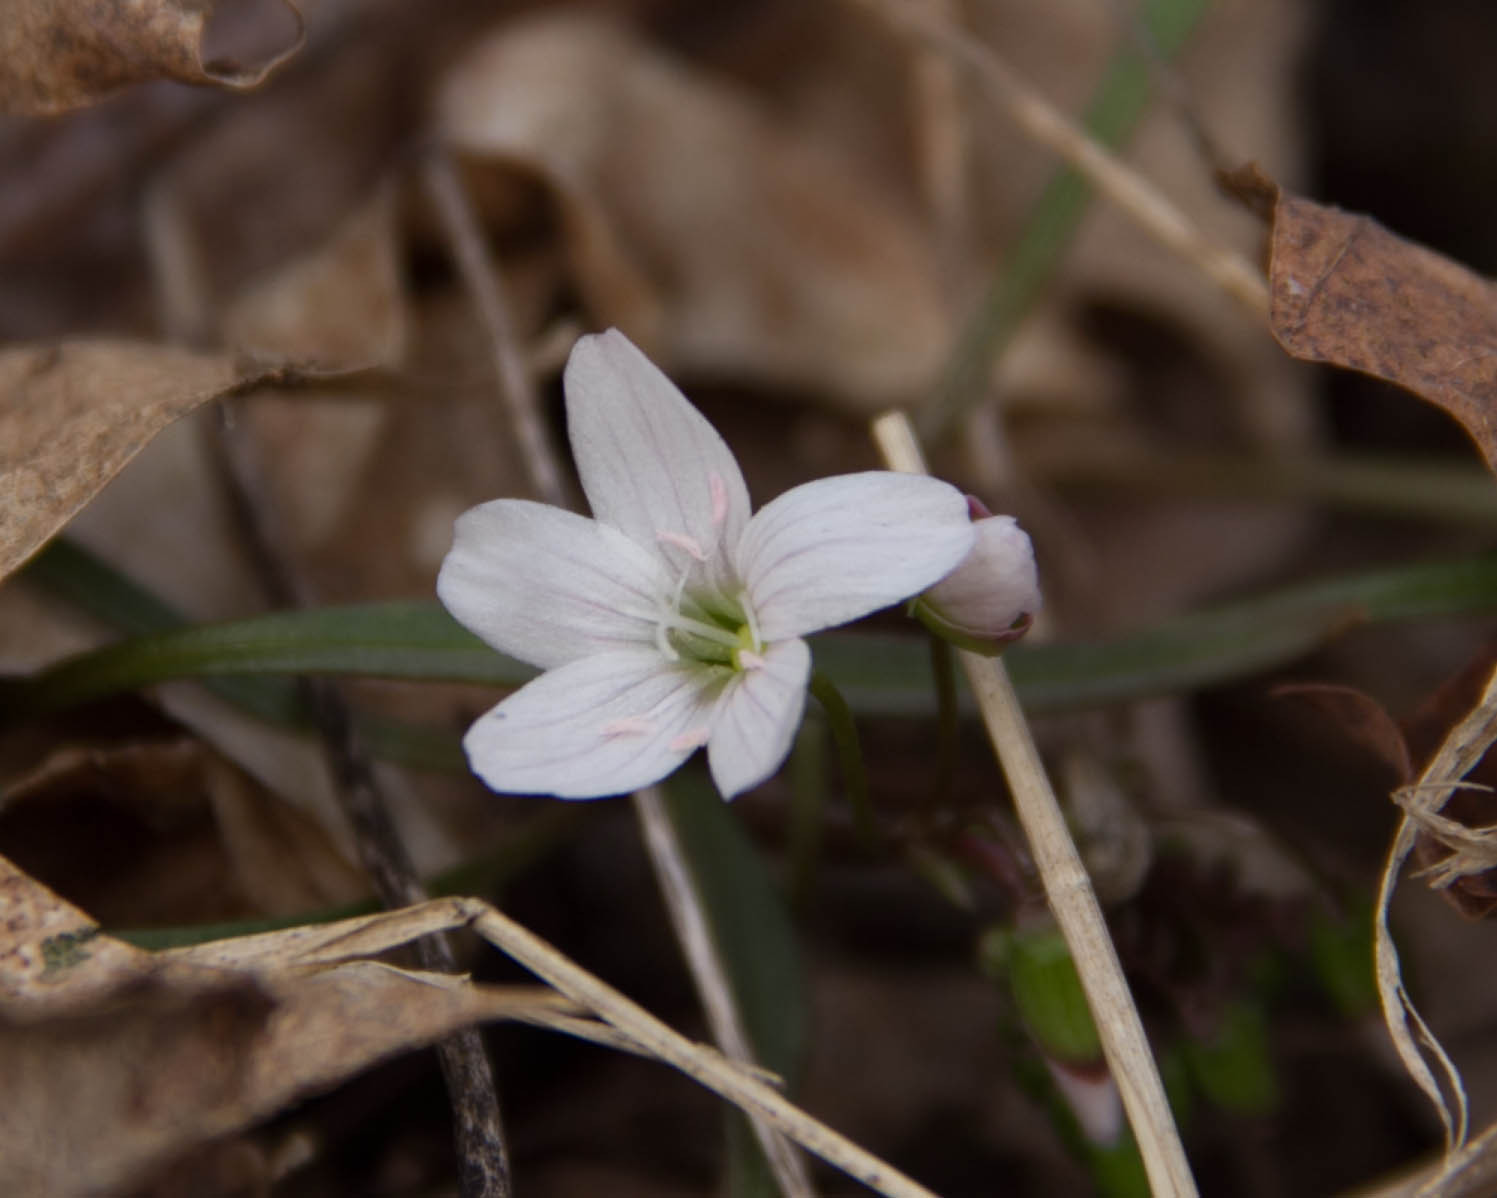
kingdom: Plantae
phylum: Tracheophyta
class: Magnoliopsida
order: Caryophyllales
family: Montiaceae
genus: Claytonia
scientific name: Claytonia virginica
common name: Virginia springbeauty
